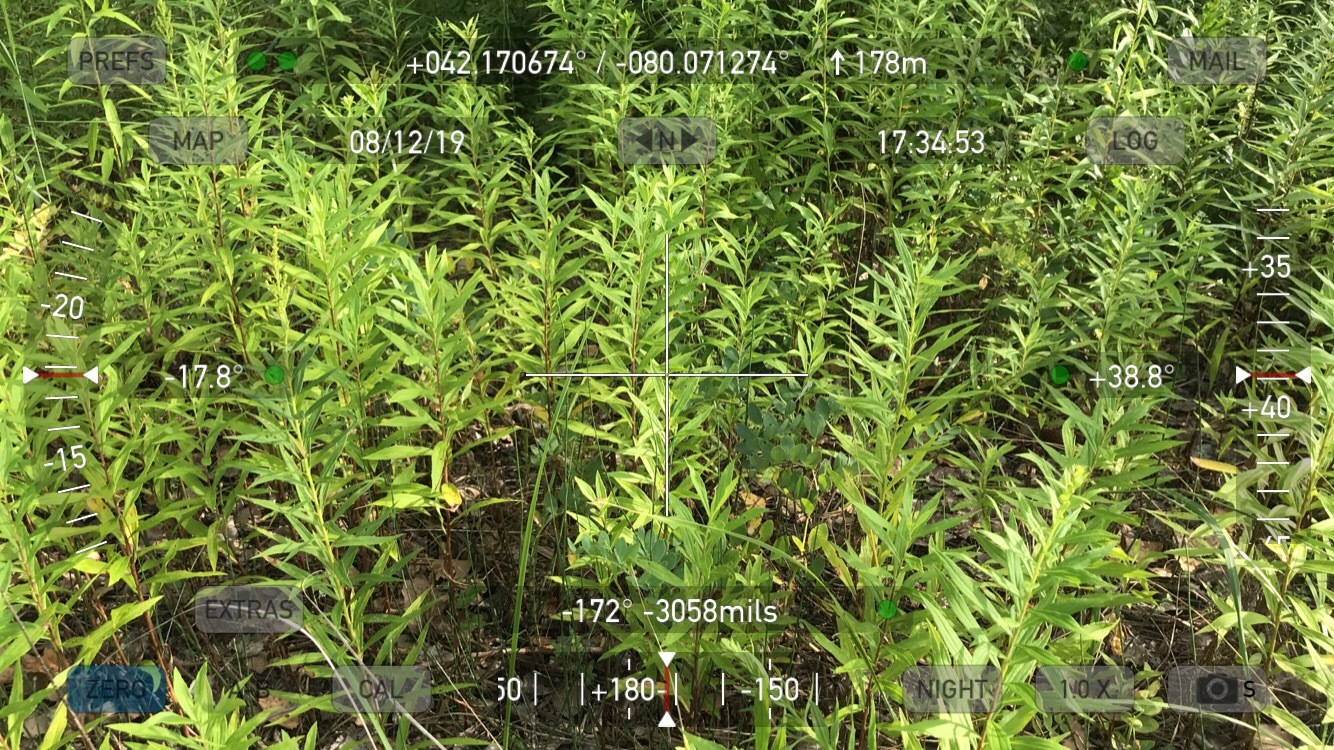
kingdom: Plantae
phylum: Tracheophyta
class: Polypodiopsida
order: Equisetales
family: Equisetaceae
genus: Equisetum
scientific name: Equisetum variegatum
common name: Variegated horsetail
